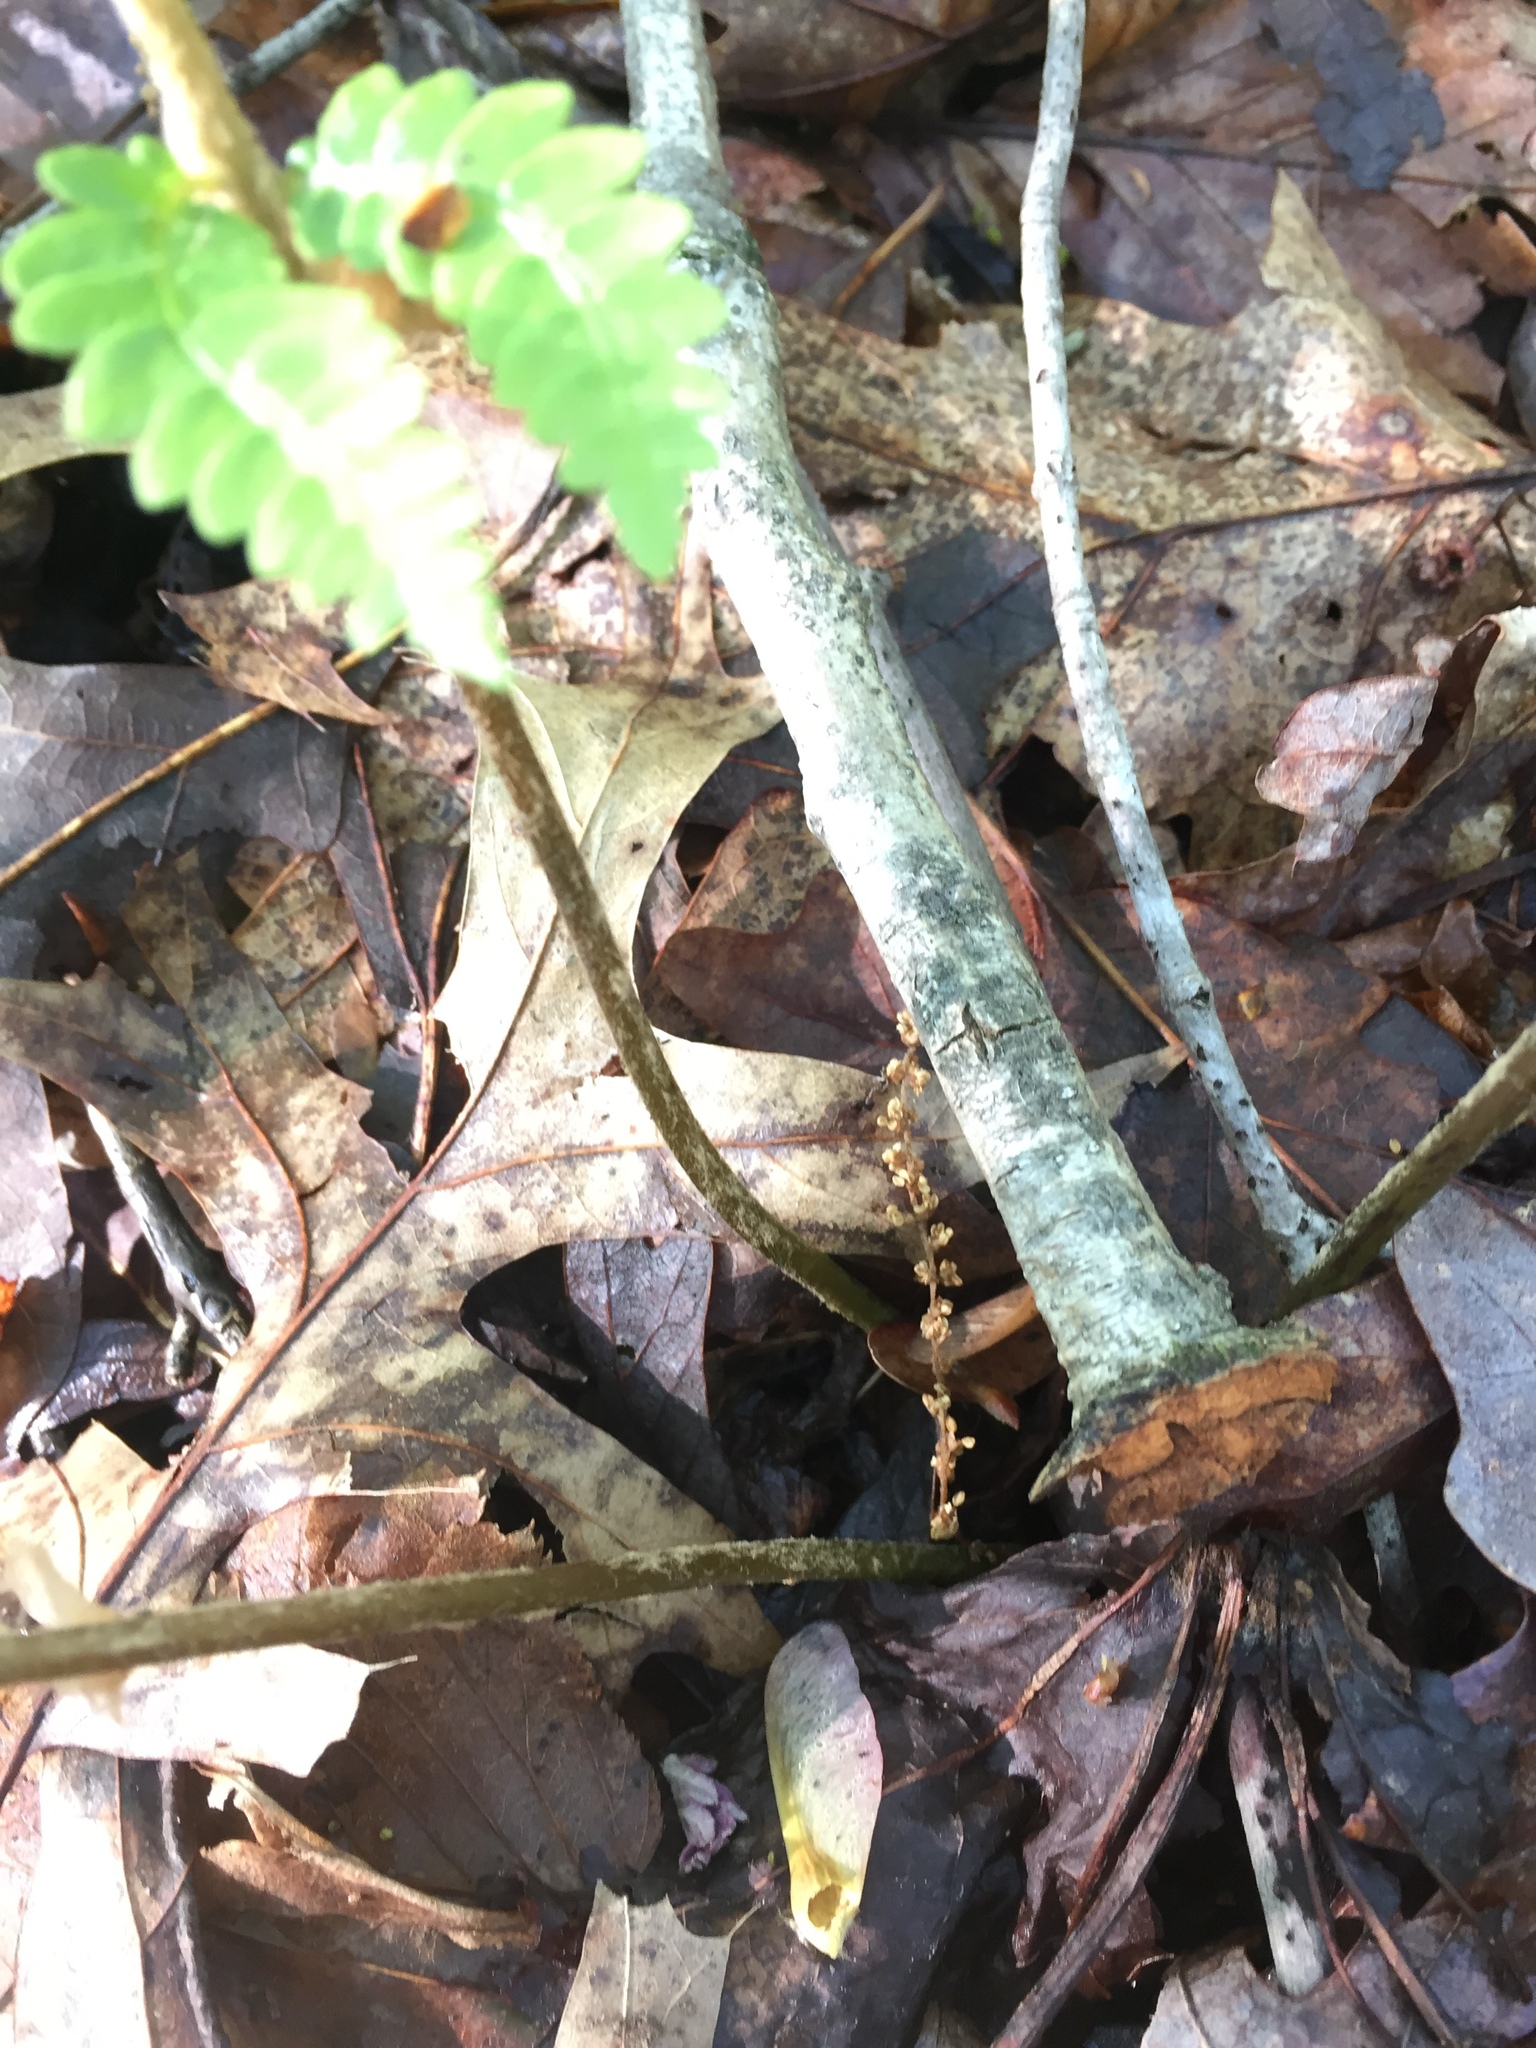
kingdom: Plantae
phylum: Tracheophyta
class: Polypodiopsida
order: Osmundales
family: Osmundaceae
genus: Osmundastrum
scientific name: Osmundastrum cinnamomeum
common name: Cinnamon fern
